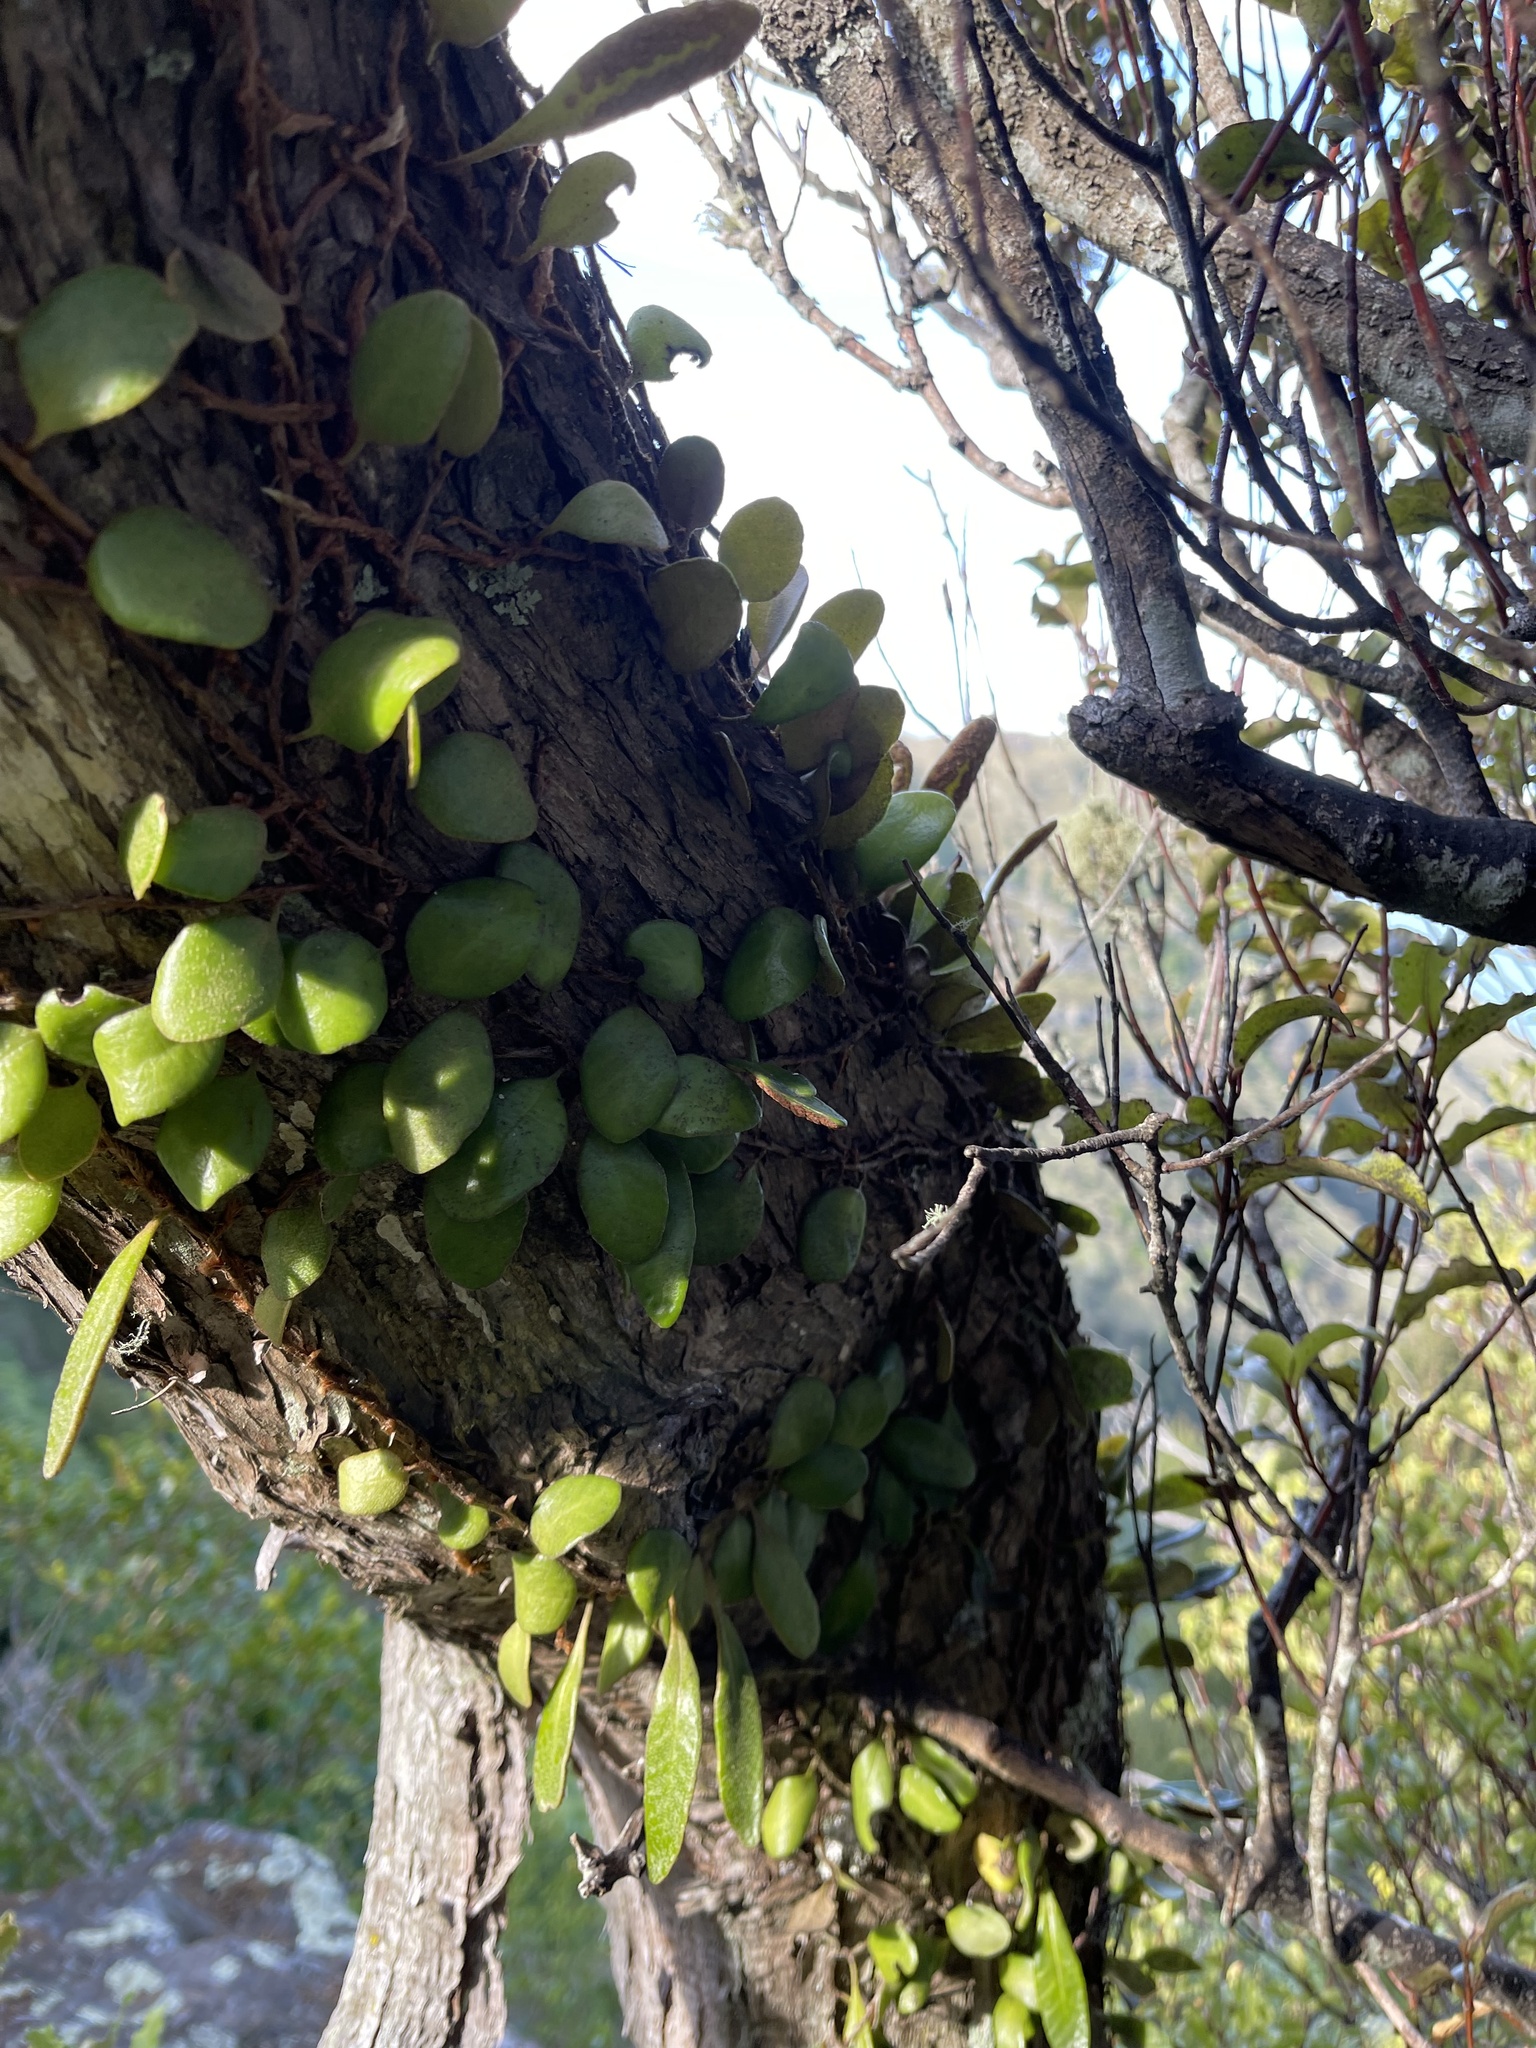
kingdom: Plantae
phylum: Tracheophyta
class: Polypodiopsida
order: Polypodiales
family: Polypodiaceae
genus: Pyrrosia
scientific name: Pyrrosia eleagnifolia
